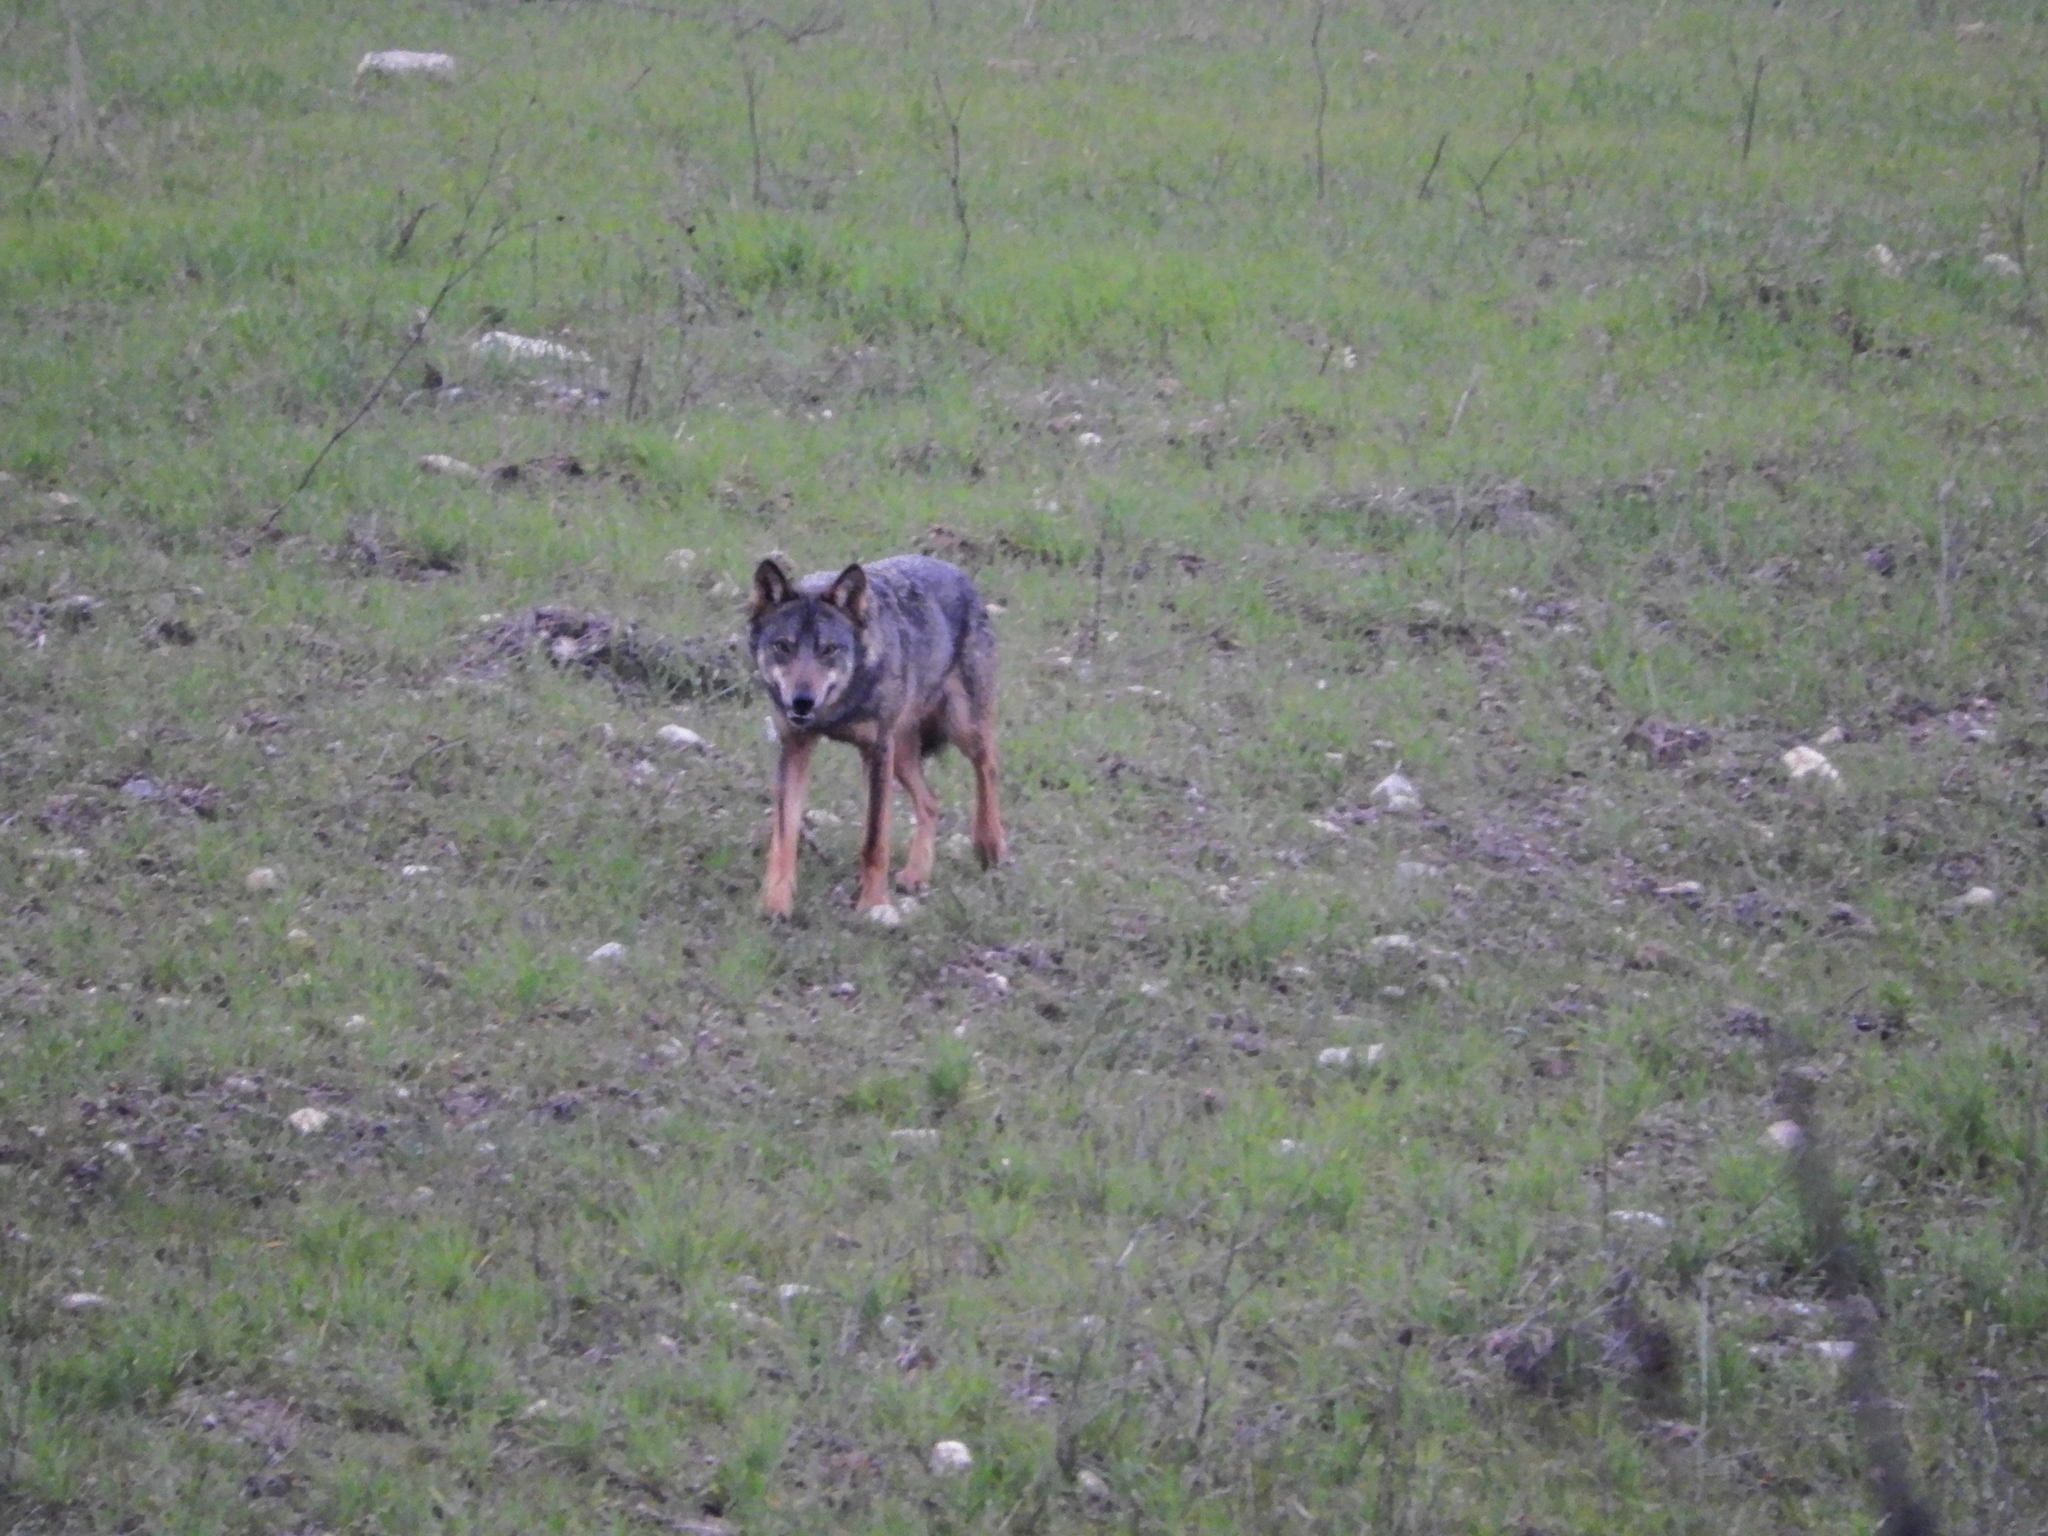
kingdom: Animalia
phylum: Chordata
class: Mammalia
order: Carnivora
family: Canidae
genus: Canis
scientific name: Canis lupus
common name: Gray wolf
